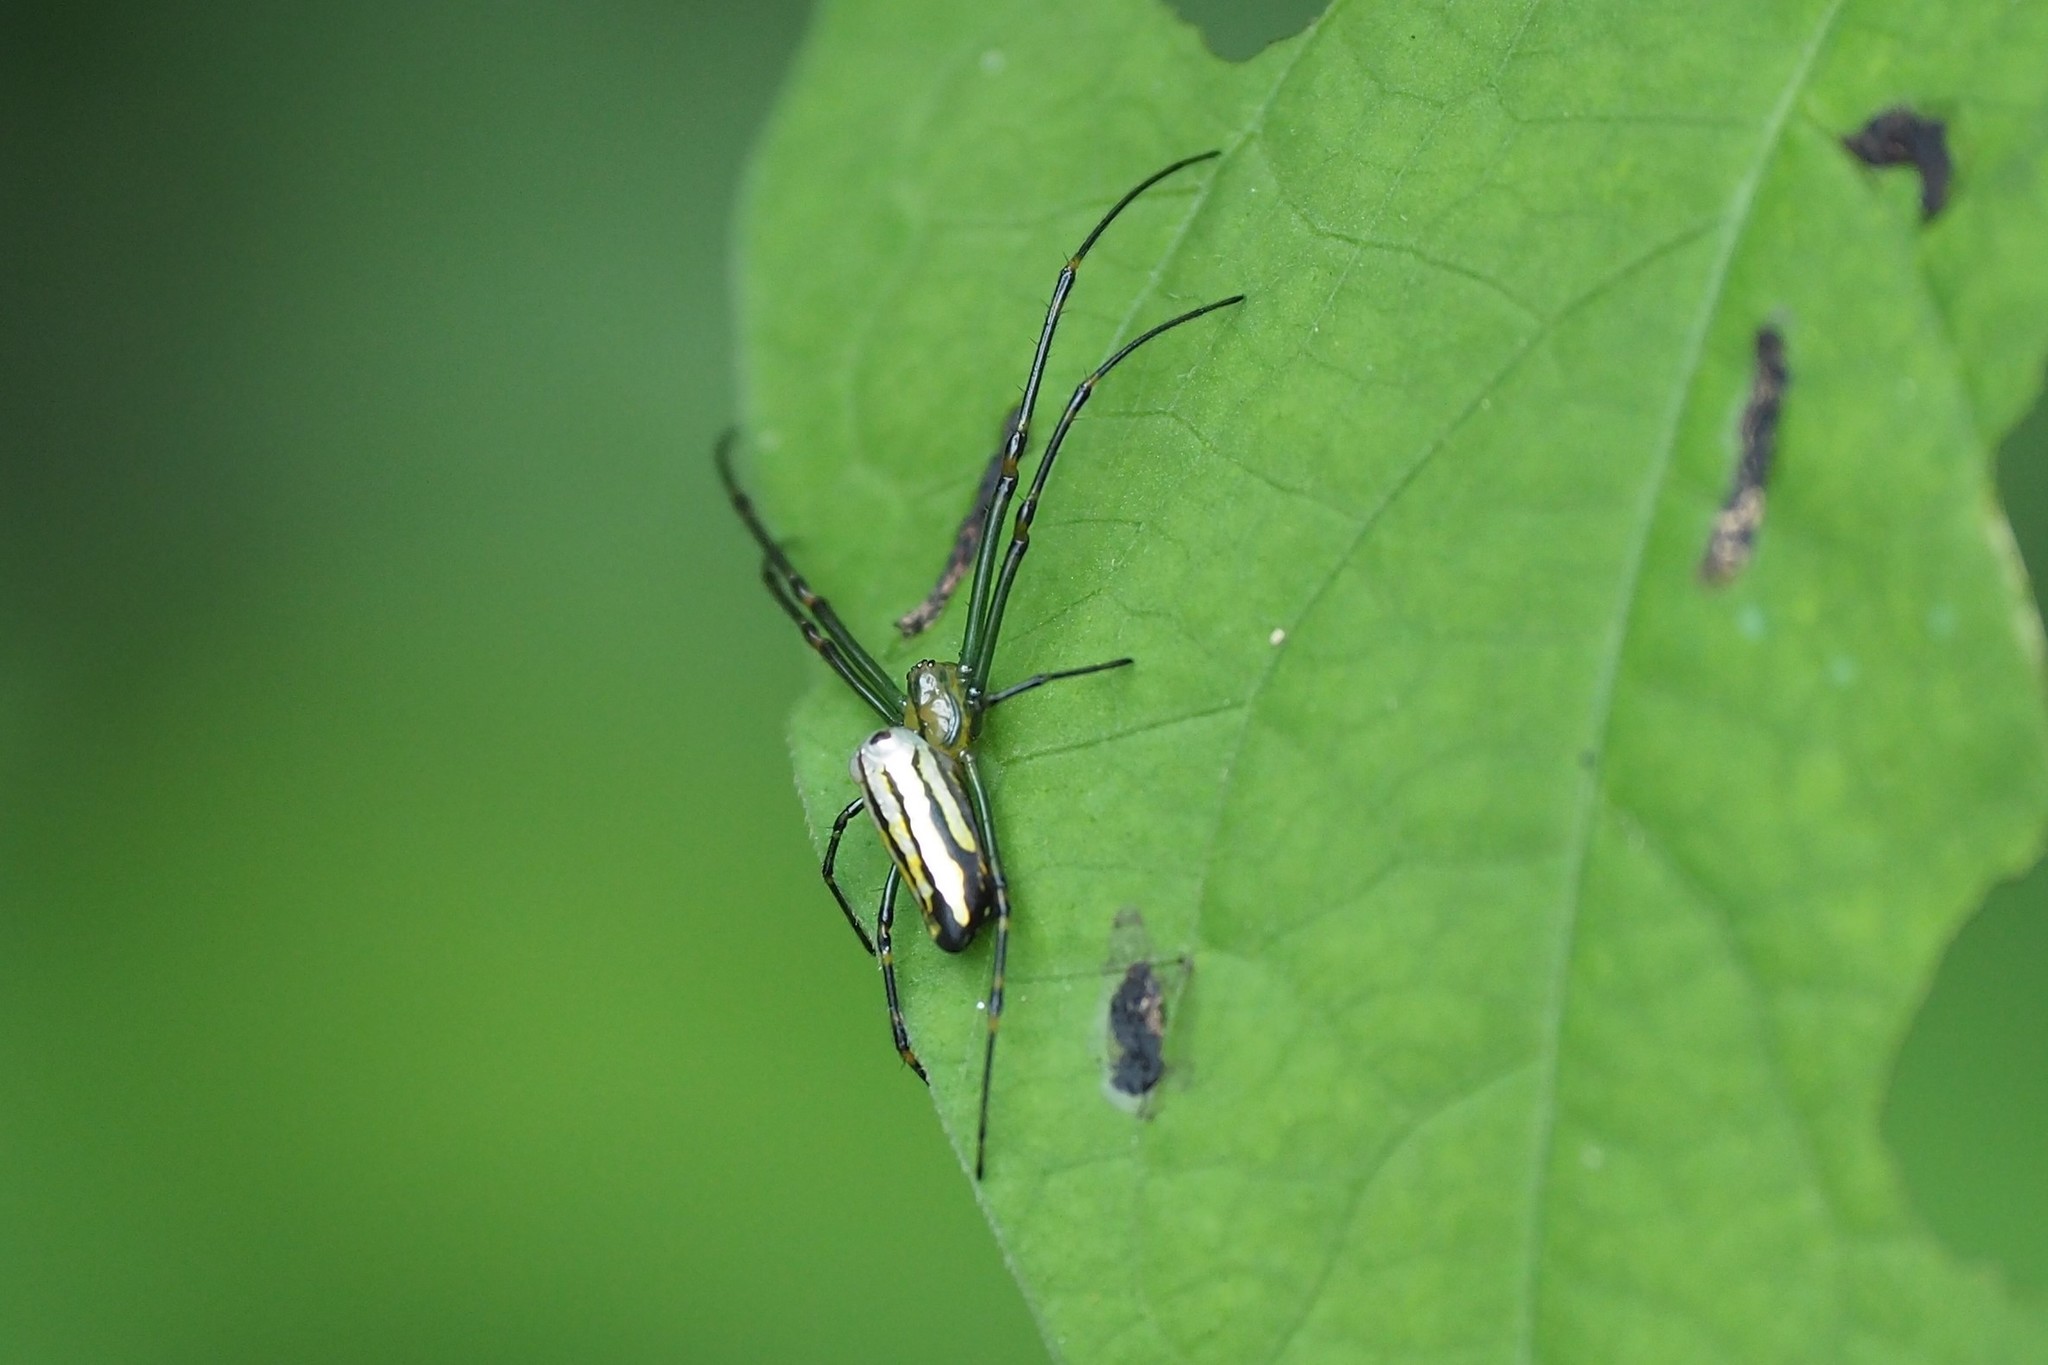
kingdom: Animalia
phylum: Arthropoda
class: Arachnida
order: Araneae
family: Tetragnathidae
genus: Leucauge
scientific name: Leucauge blanda
